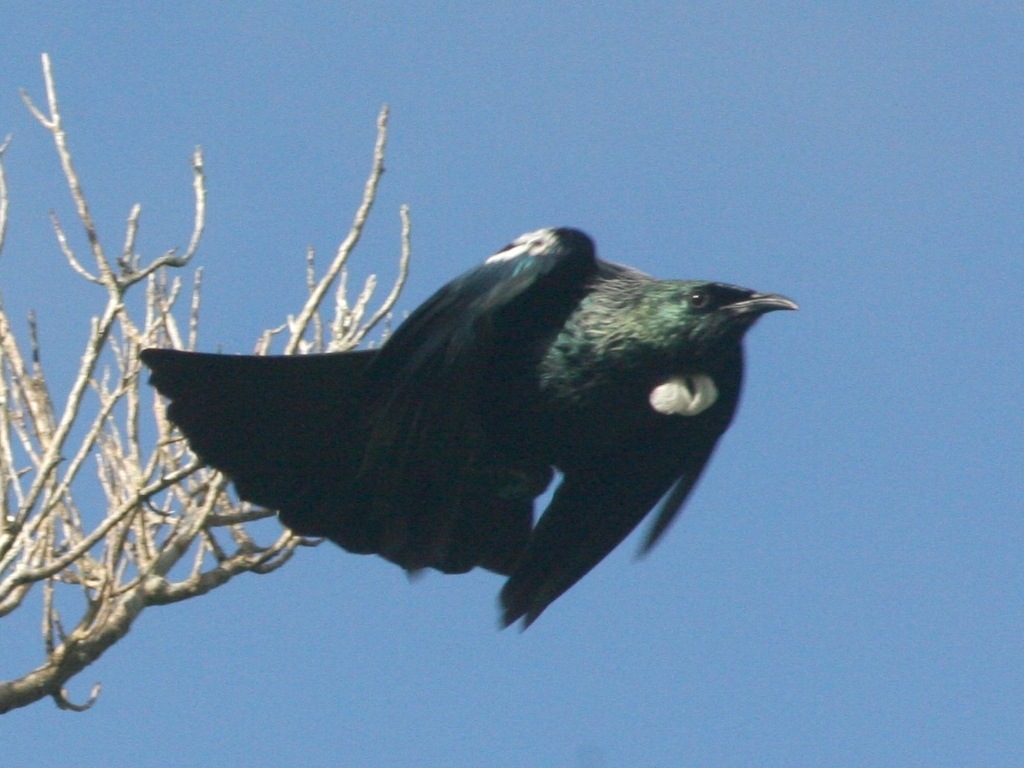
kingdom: Animalia
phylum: Chordata
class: Aves
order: Passeriformes
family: Meliphagidae
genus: Prosthemadera
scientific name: Prosthemadera novaeseelandiae
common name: Tui
